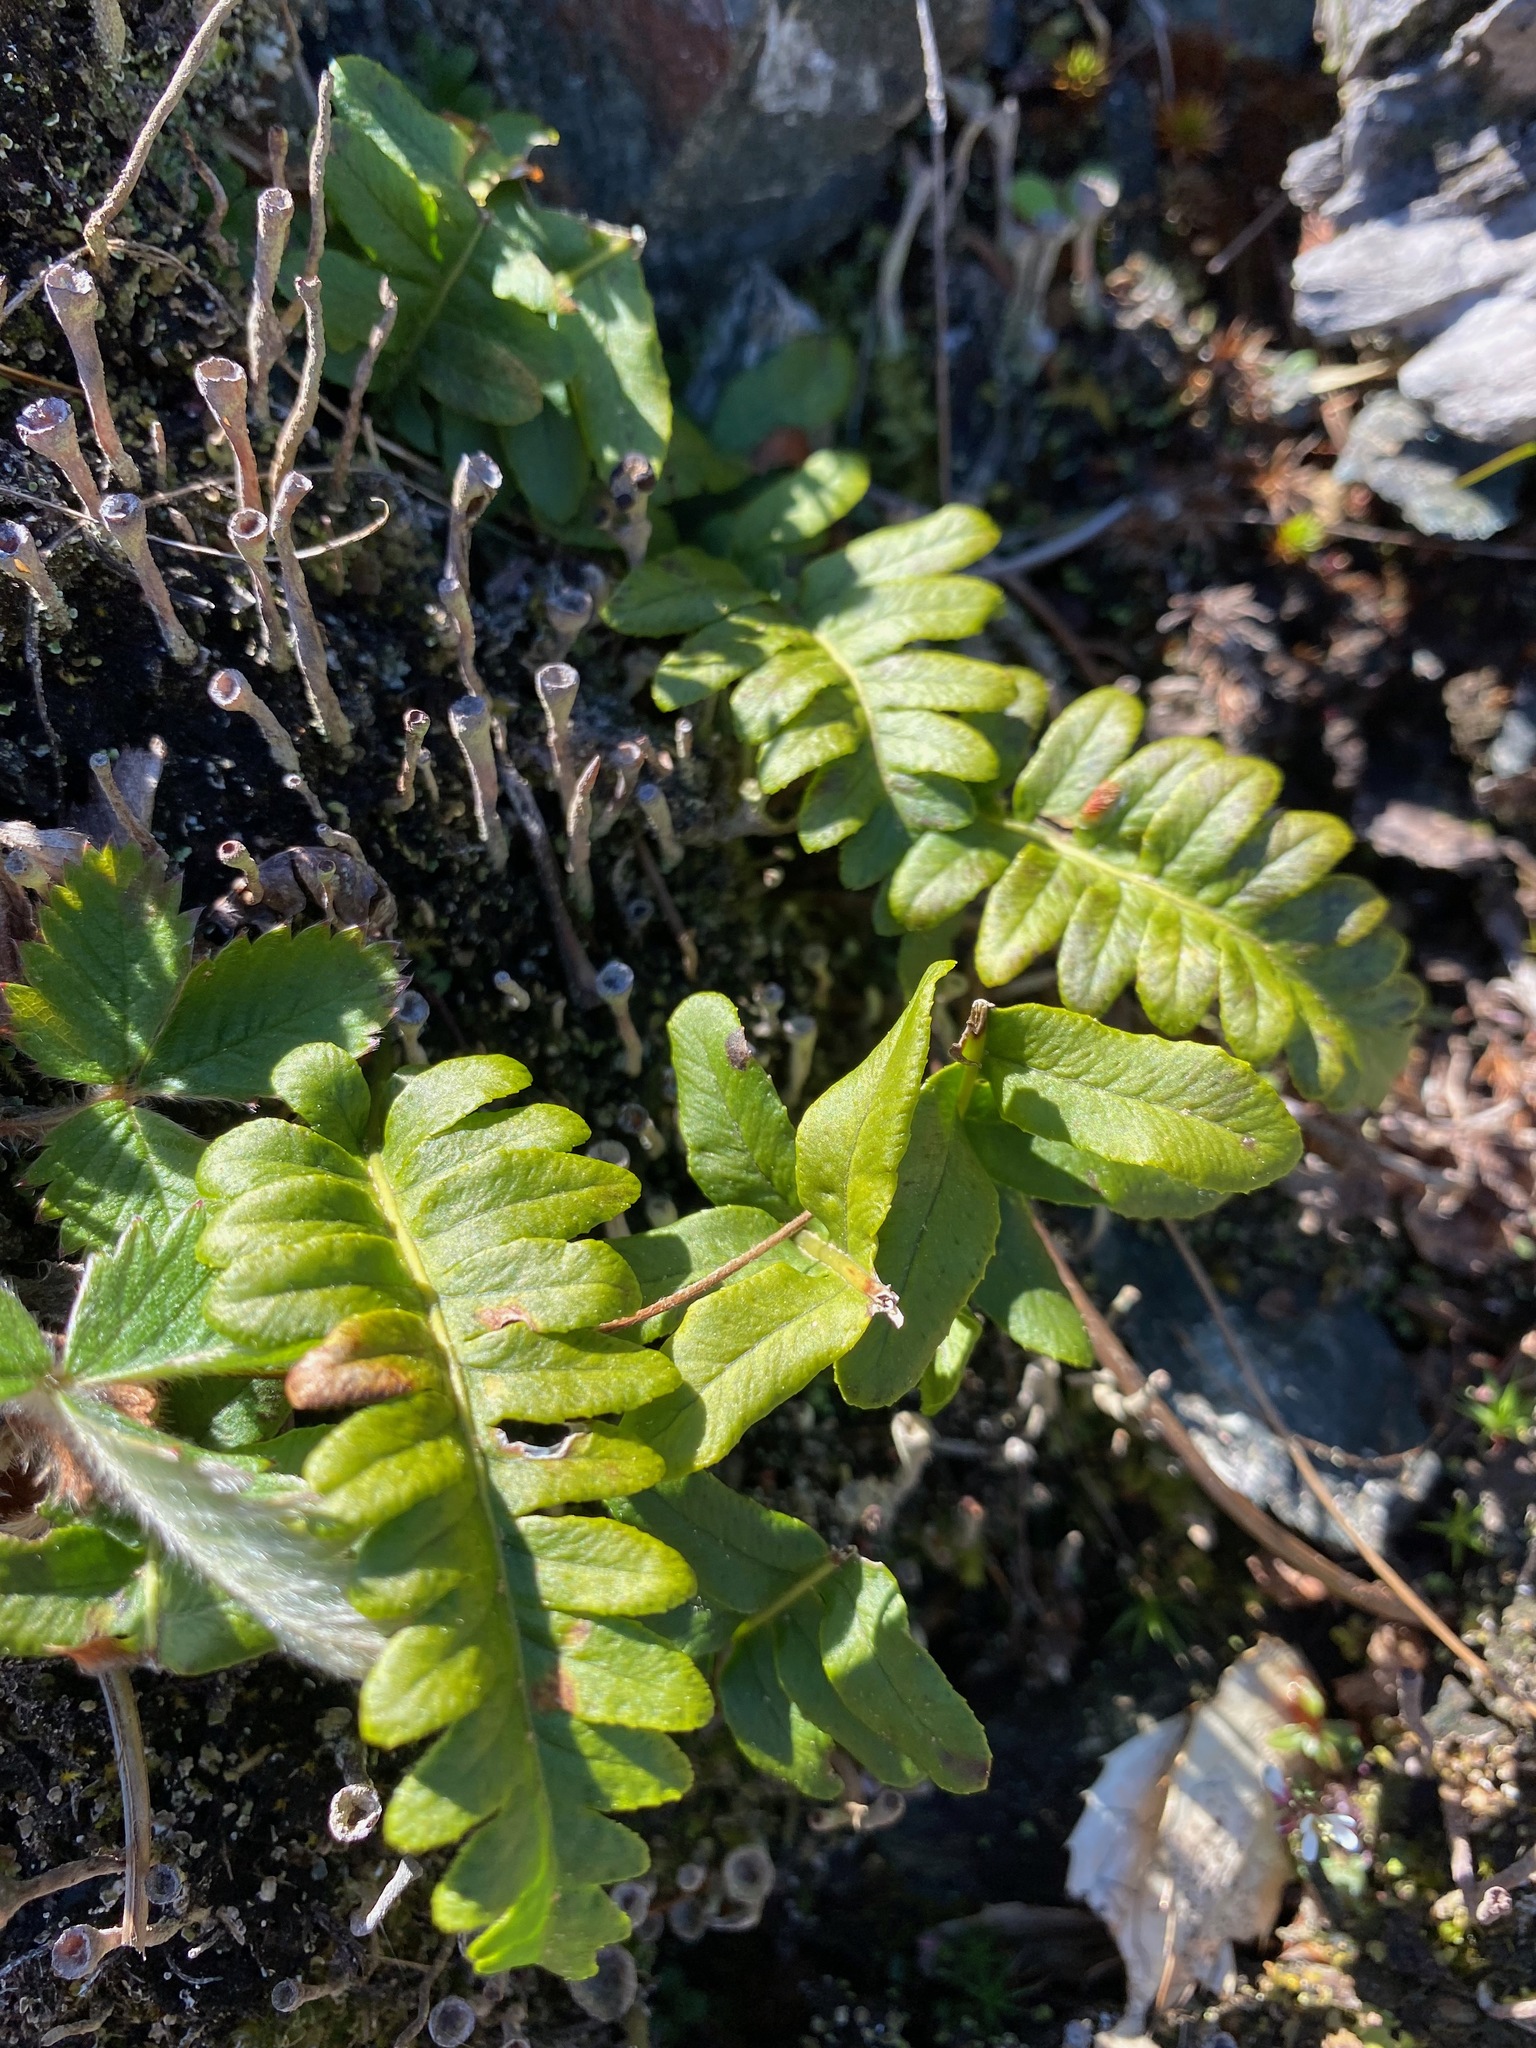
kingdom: Plantae
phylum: Tracheophyta
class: Polypodiopsida
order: Polypodiales
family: Polypodiaceae
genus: Polypodium
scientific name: Polypodium glycyrrhiza
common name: Licorice fern
